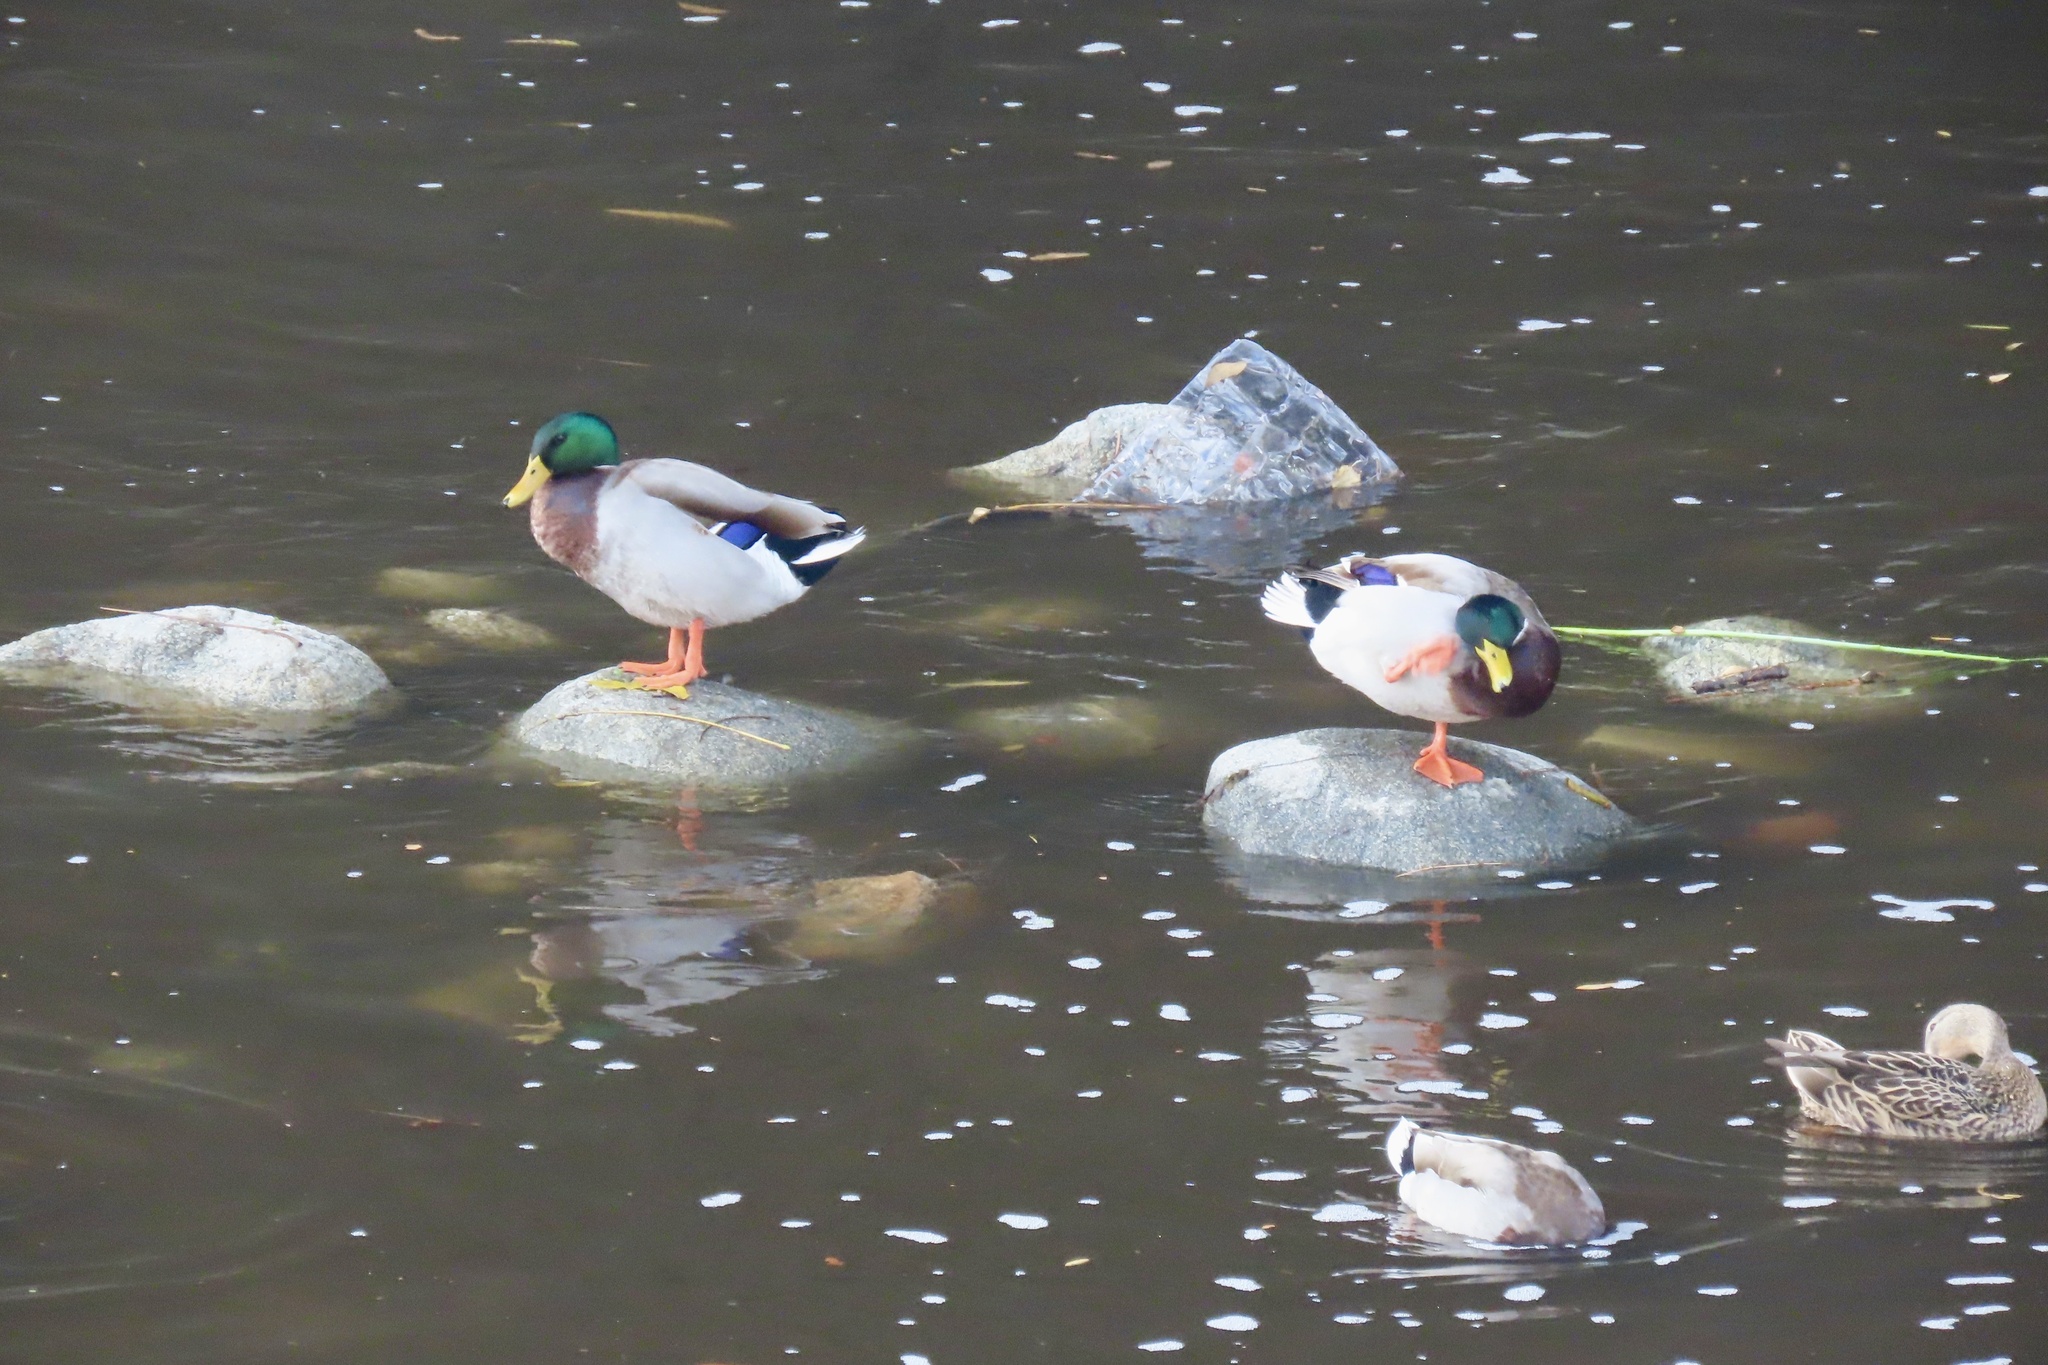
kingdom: Animalia
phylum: Chordata
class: Aves
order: Anseriformes
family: Anatidae
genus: Anas
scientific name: Anas platyrhynchos
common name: Mallard
